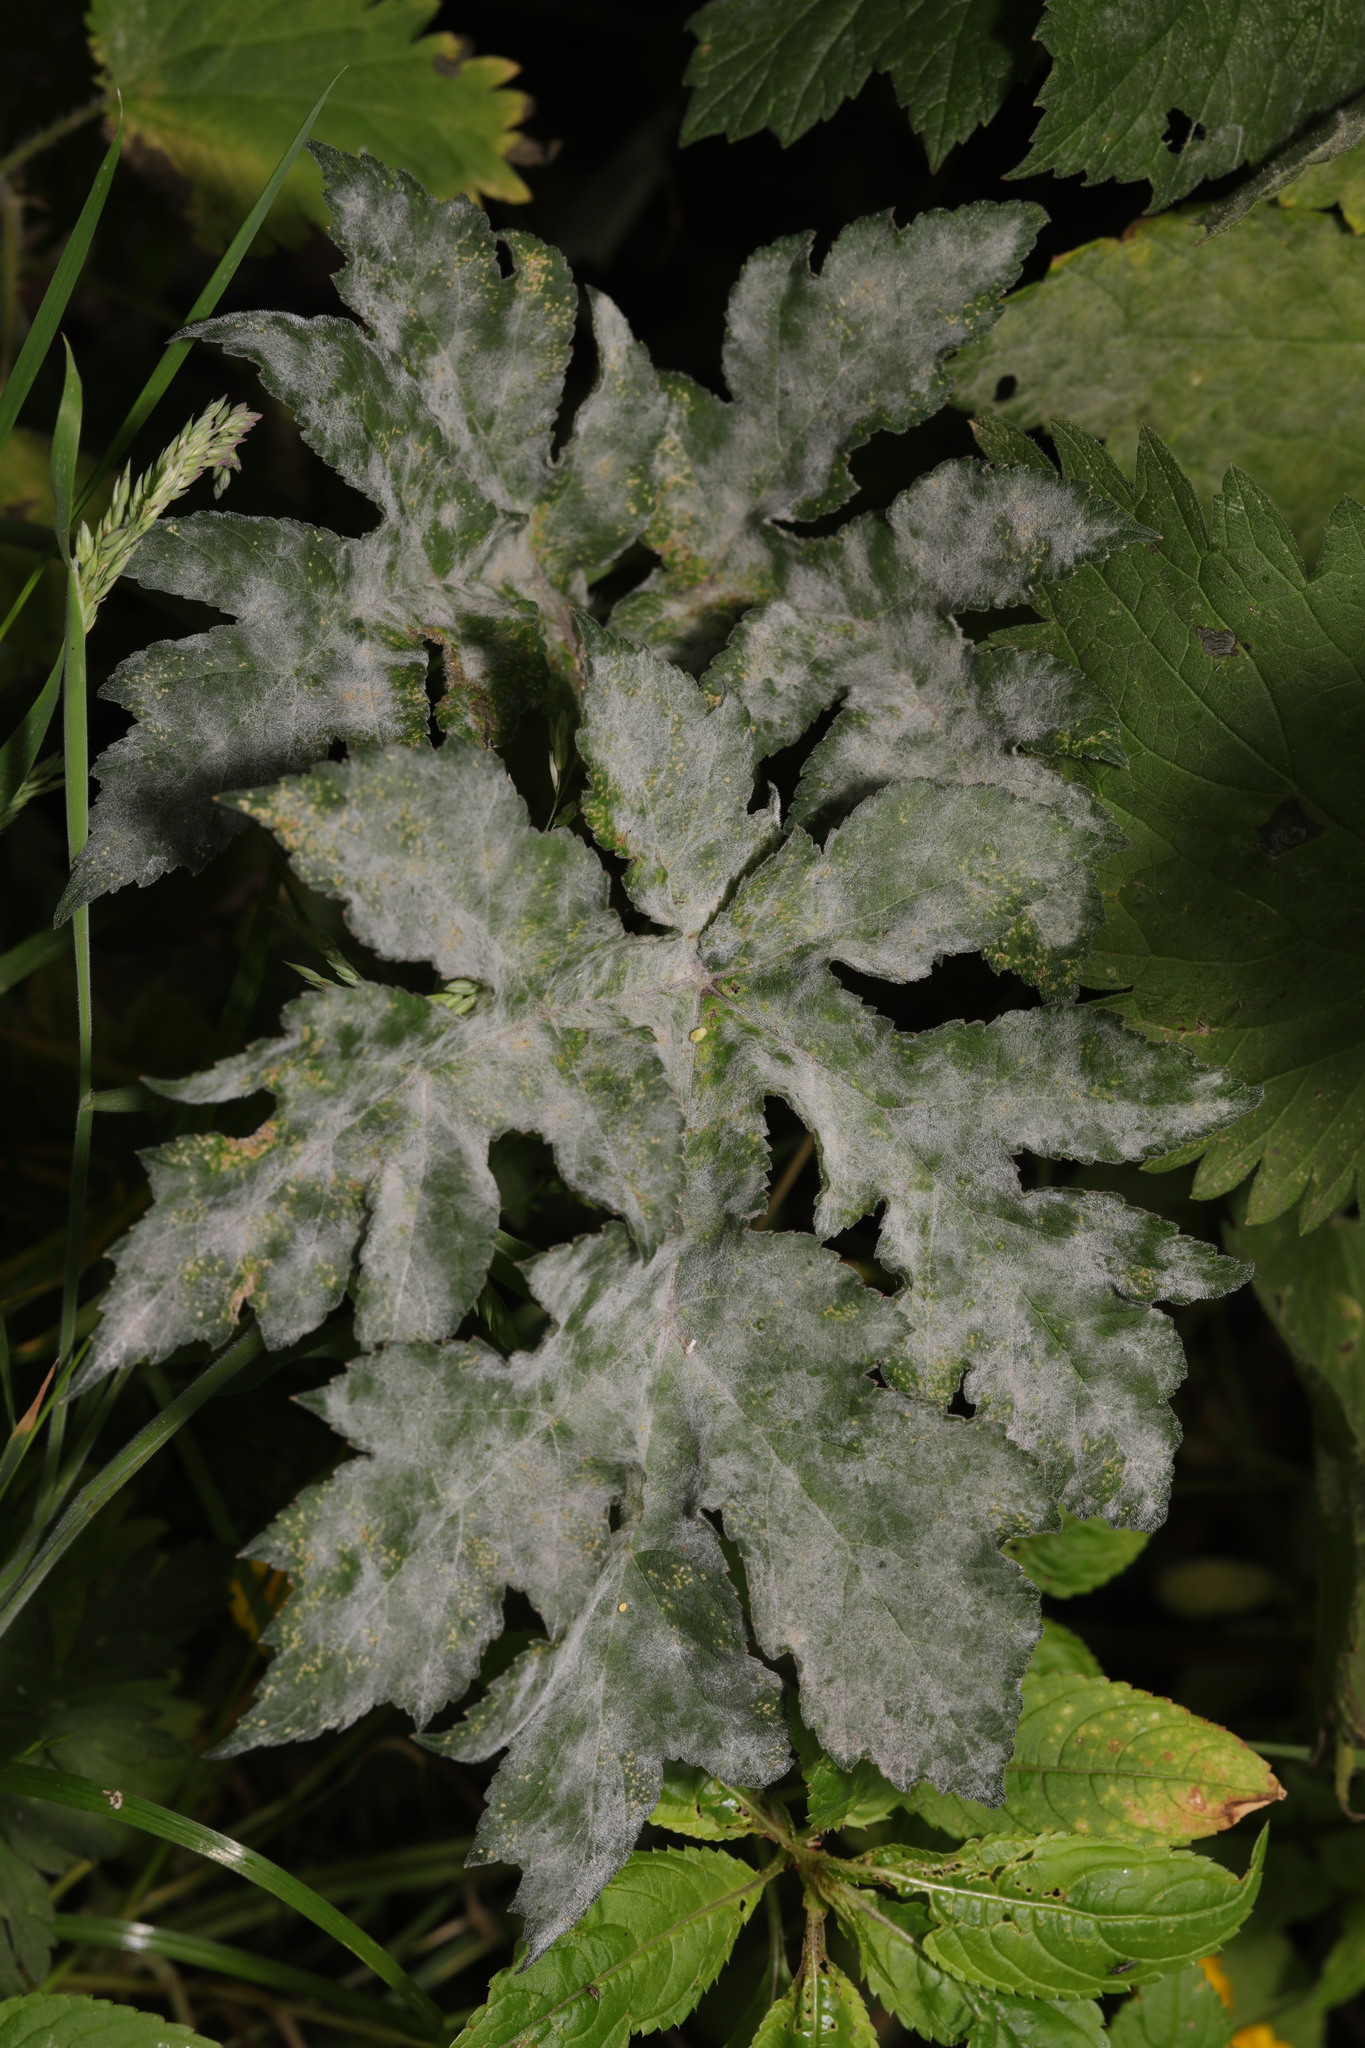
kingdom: Fungi
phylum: Ascomycota
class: Leotiomycetes
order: Helotiales
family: Erysiphaceae
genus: Erysiphe
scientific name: Erysiphe heraclei
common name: Umbellifer mildew
